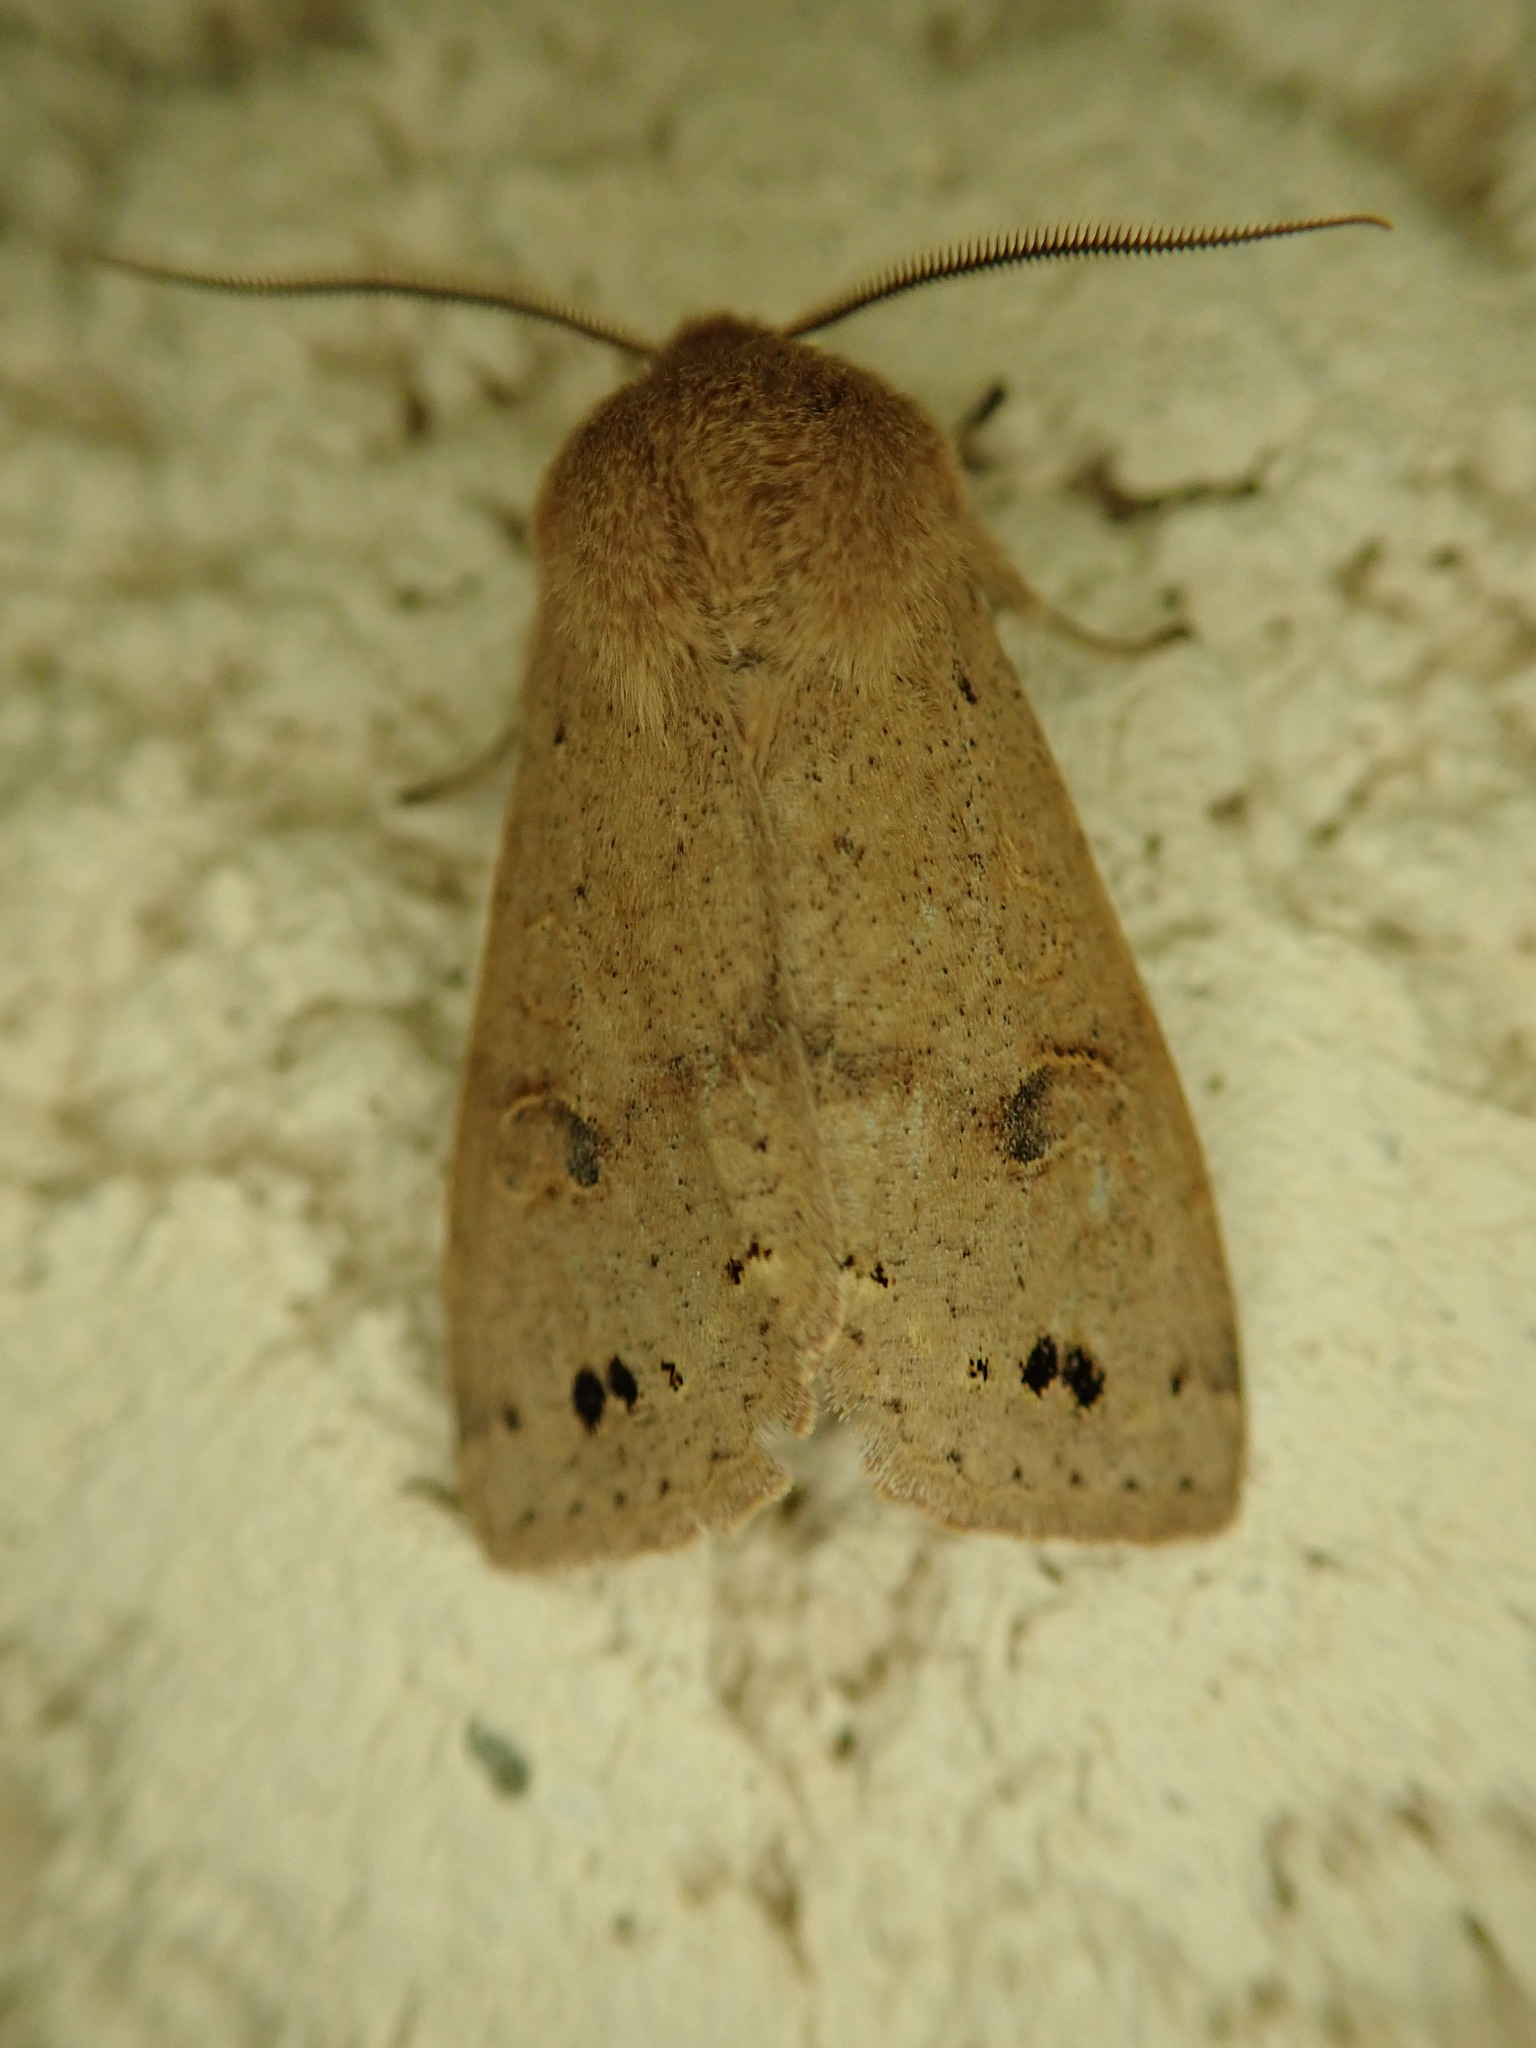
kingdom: Animalia
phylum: Arthropoda
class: Insecta
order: Lepidoptera
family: Noctuidae
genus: Anorthoa
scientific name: Anorthoa munda
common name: Twin-spotted quaker
